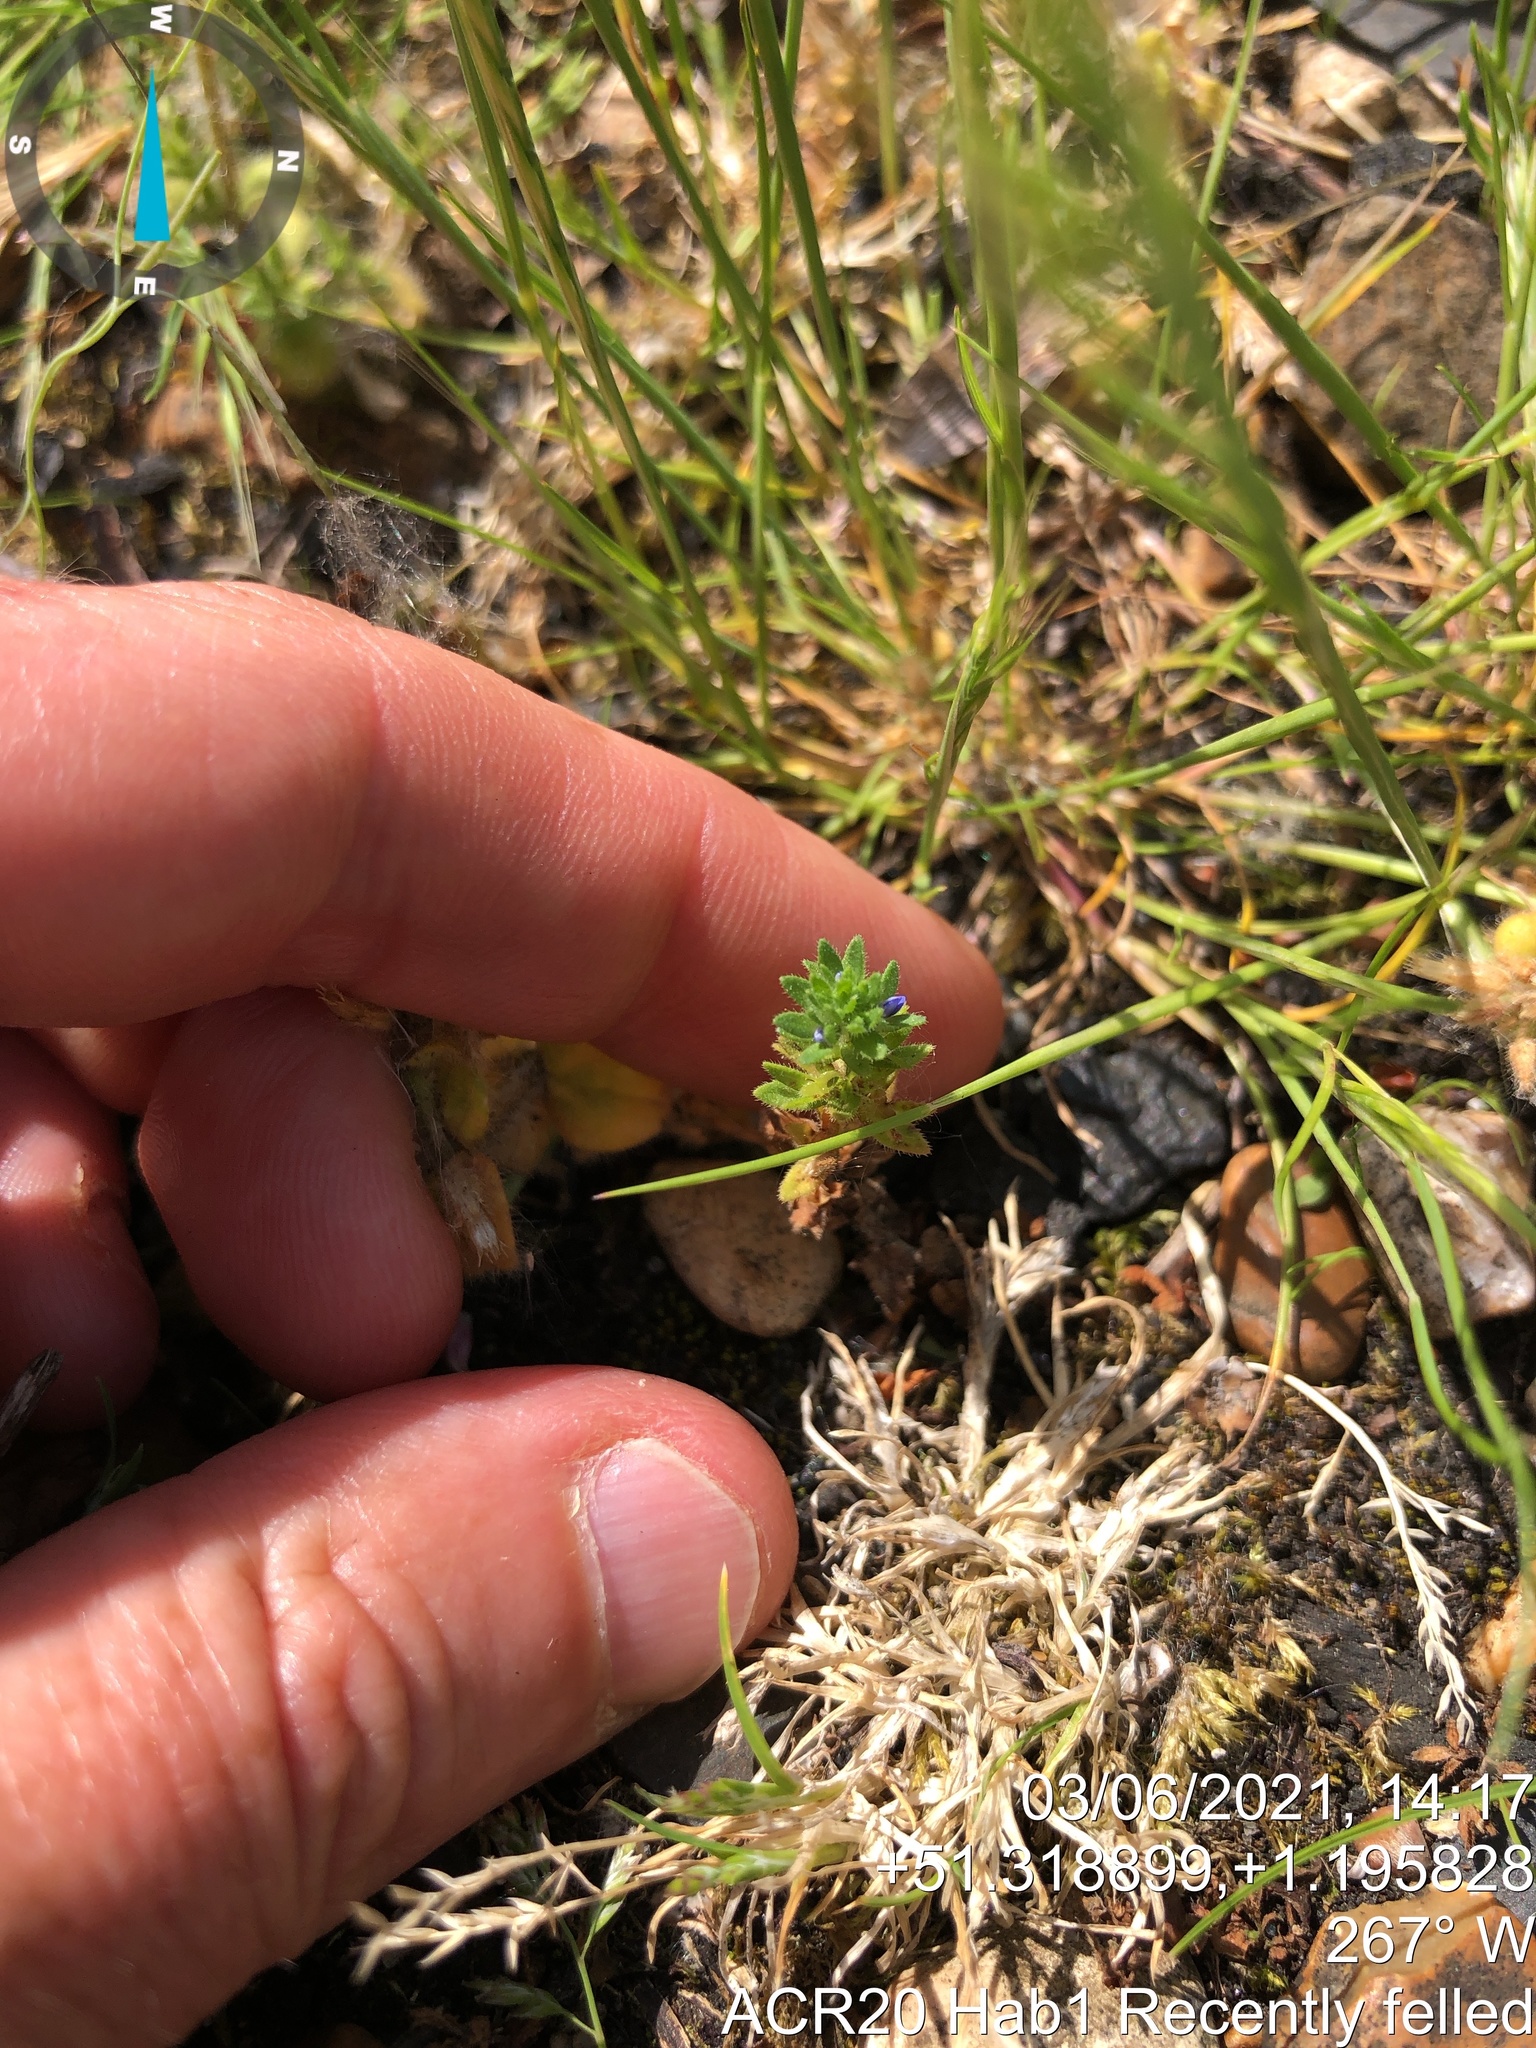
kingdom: Plantae
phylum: Tracheophyta
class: Magnoliopsida
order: Lamiales
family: Plantaginaceae
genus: Veronica
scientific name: Veronica arvensis
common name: Corn speedwell
